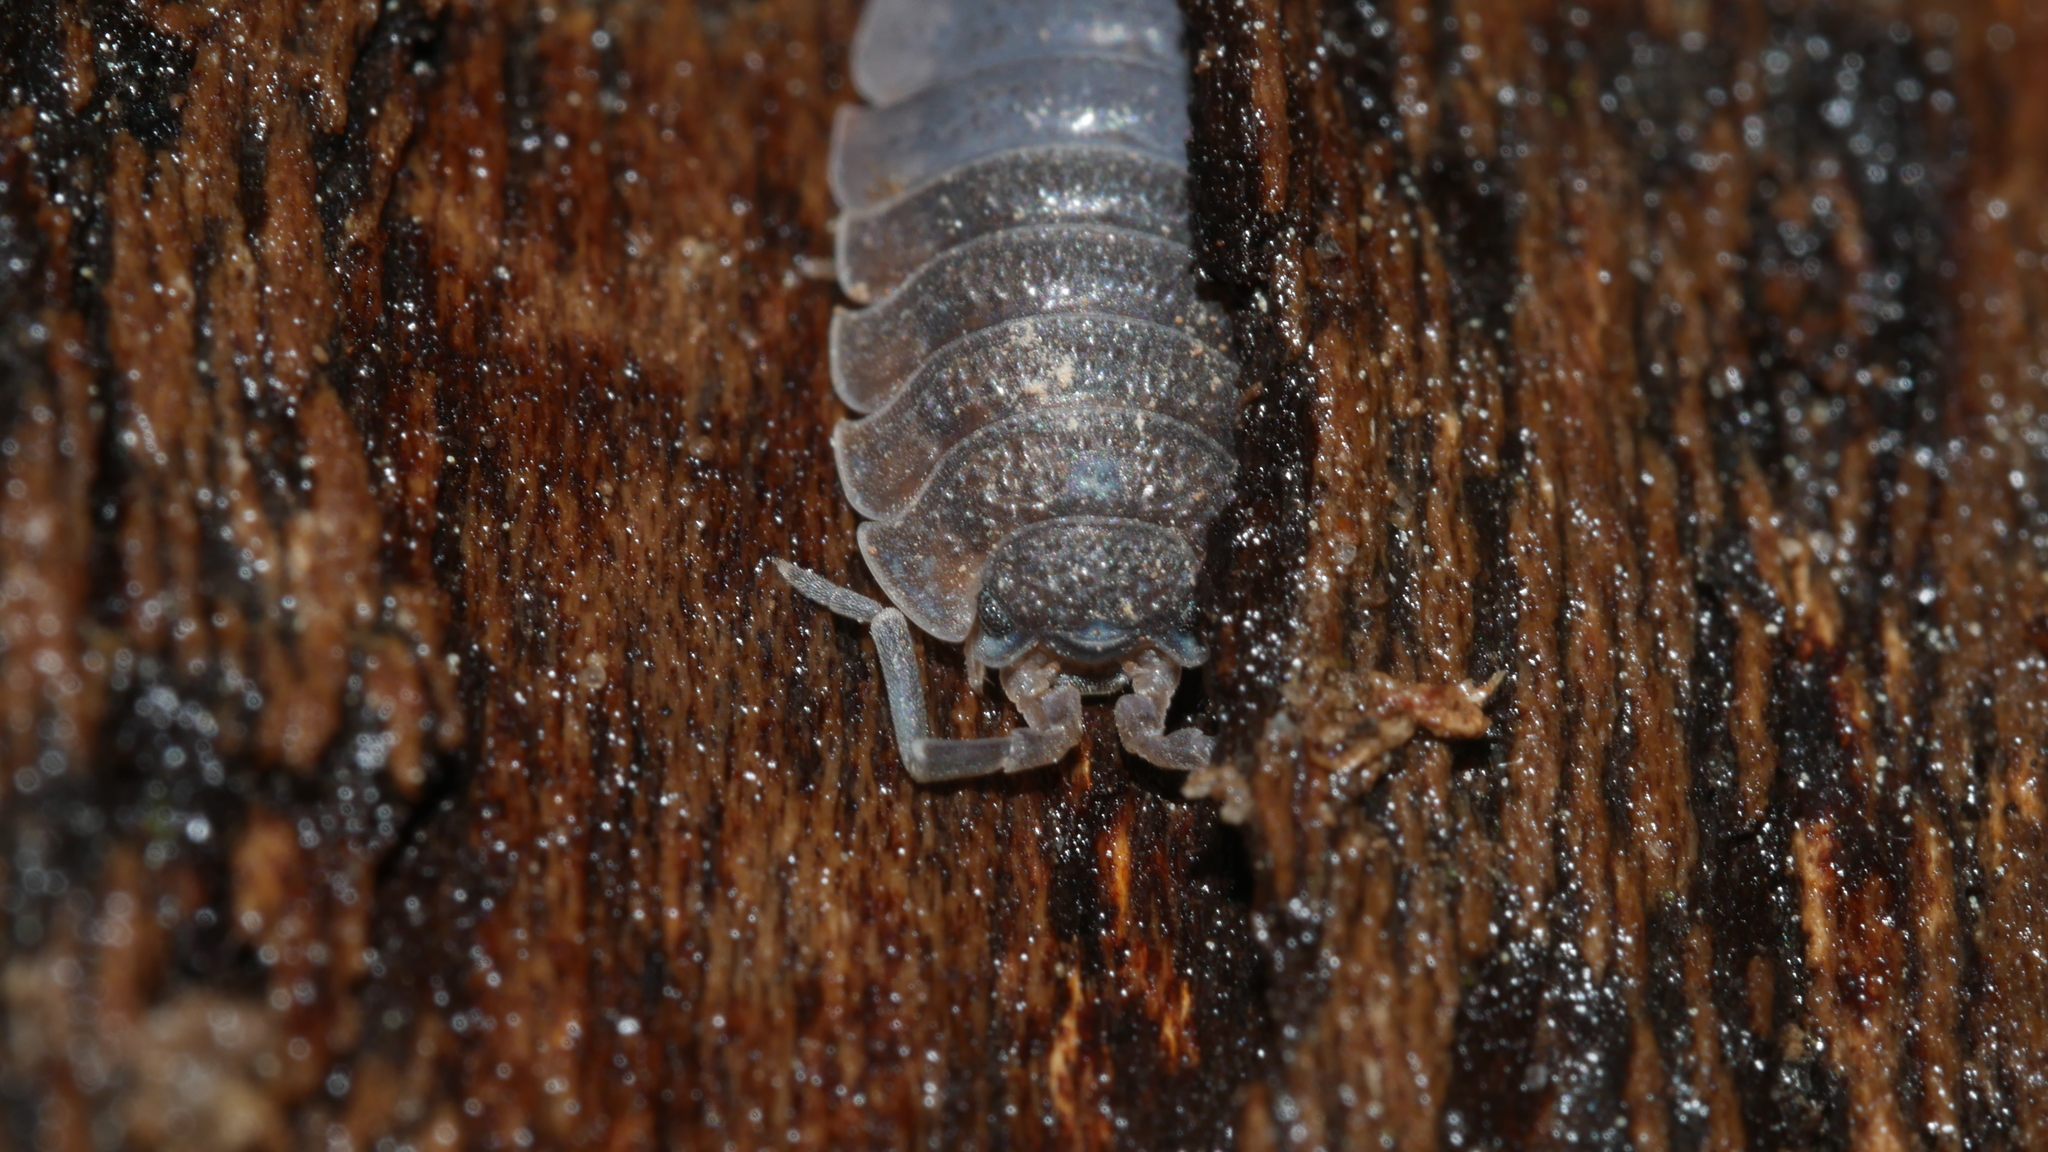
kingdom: Animalia
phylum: Arthropoda
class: Malacostraca
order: Isopoda
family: Porcellionidae
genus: Porcellio
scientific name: Porcellio scaber
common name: Common rough woodlouse
